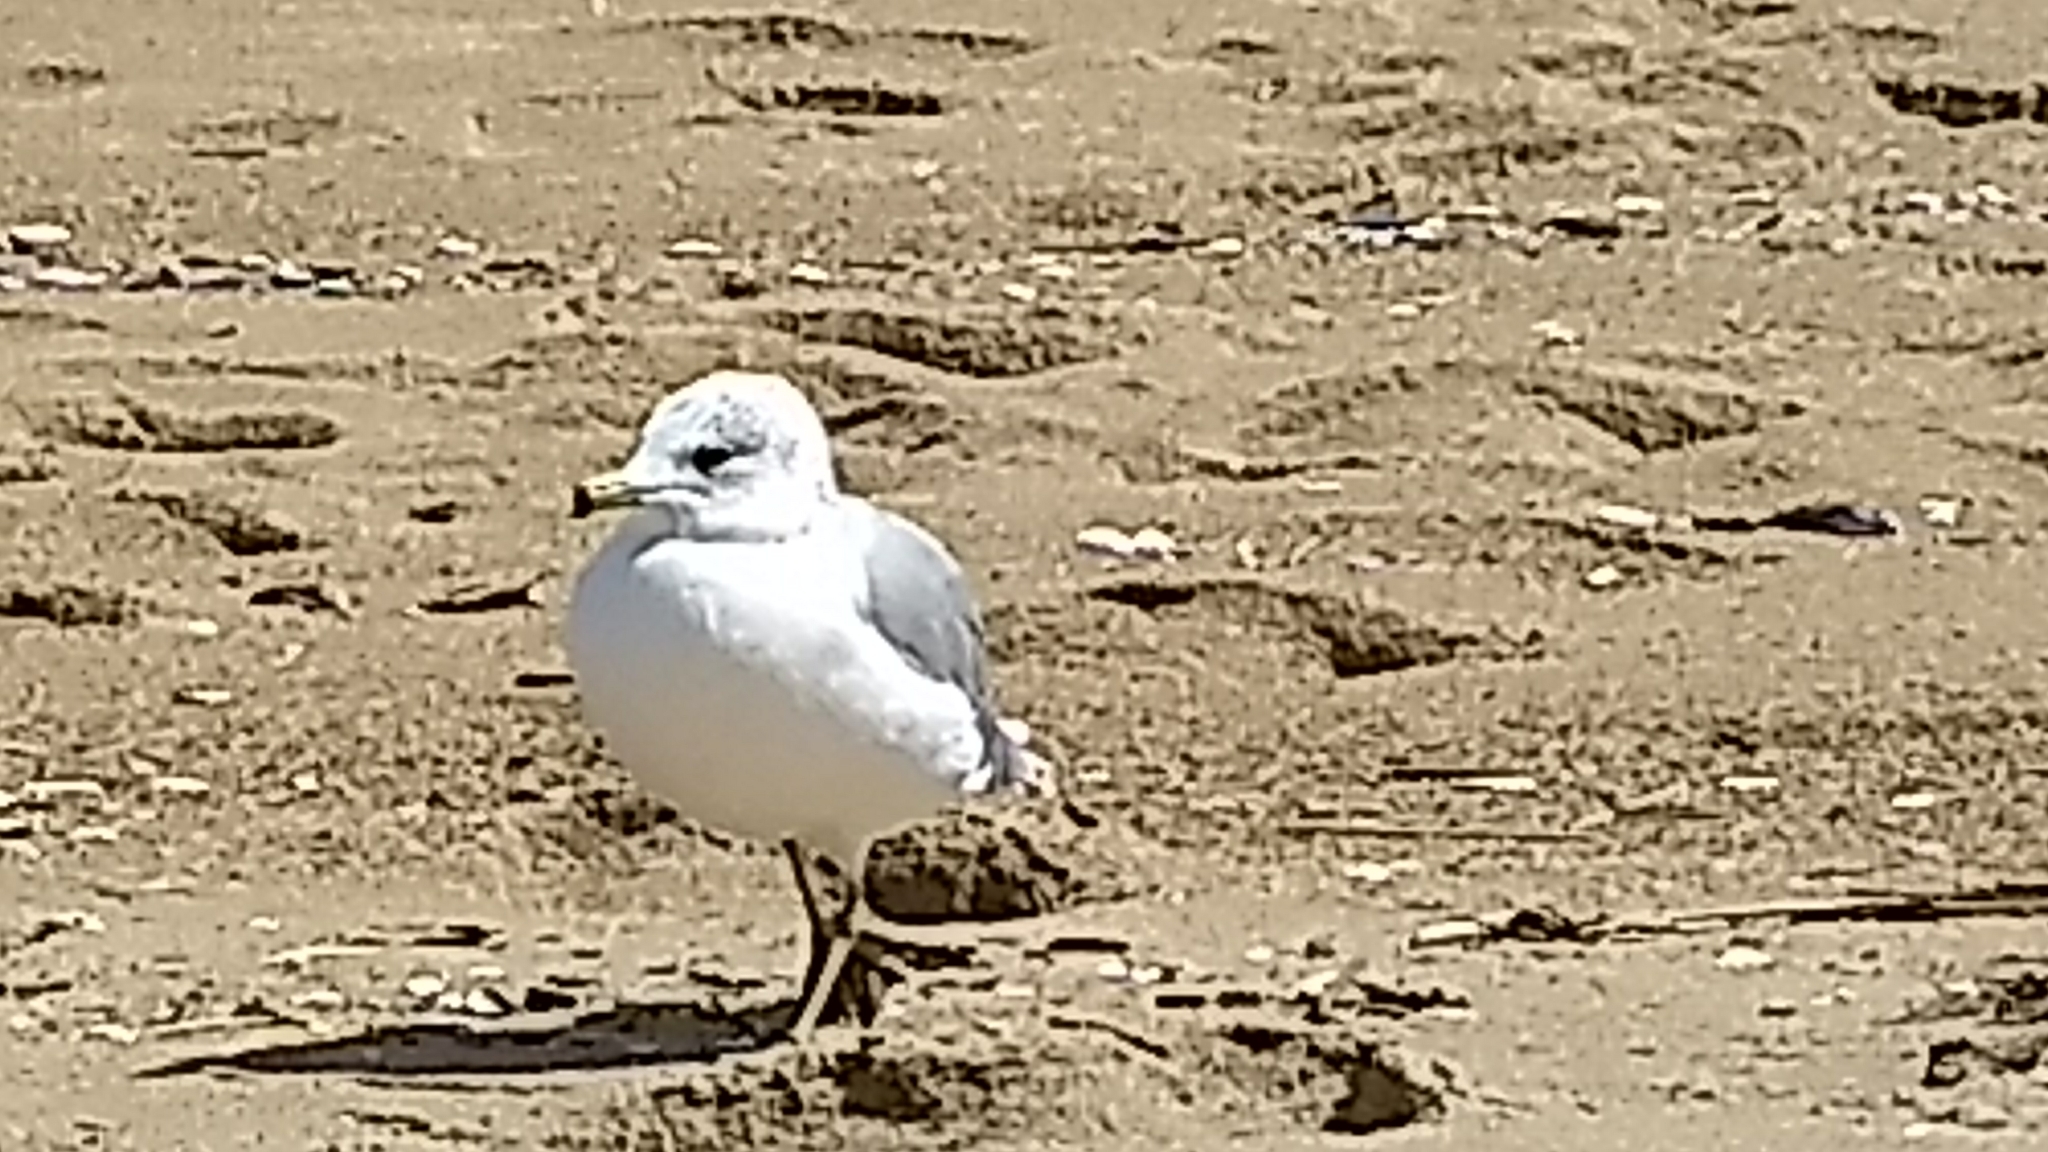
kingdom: Animalia
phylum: Chordata
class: Aves
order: Charadriiformes
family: Laridae
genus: Larus
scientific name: Larus delawarensis
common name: Ring-billed gull
